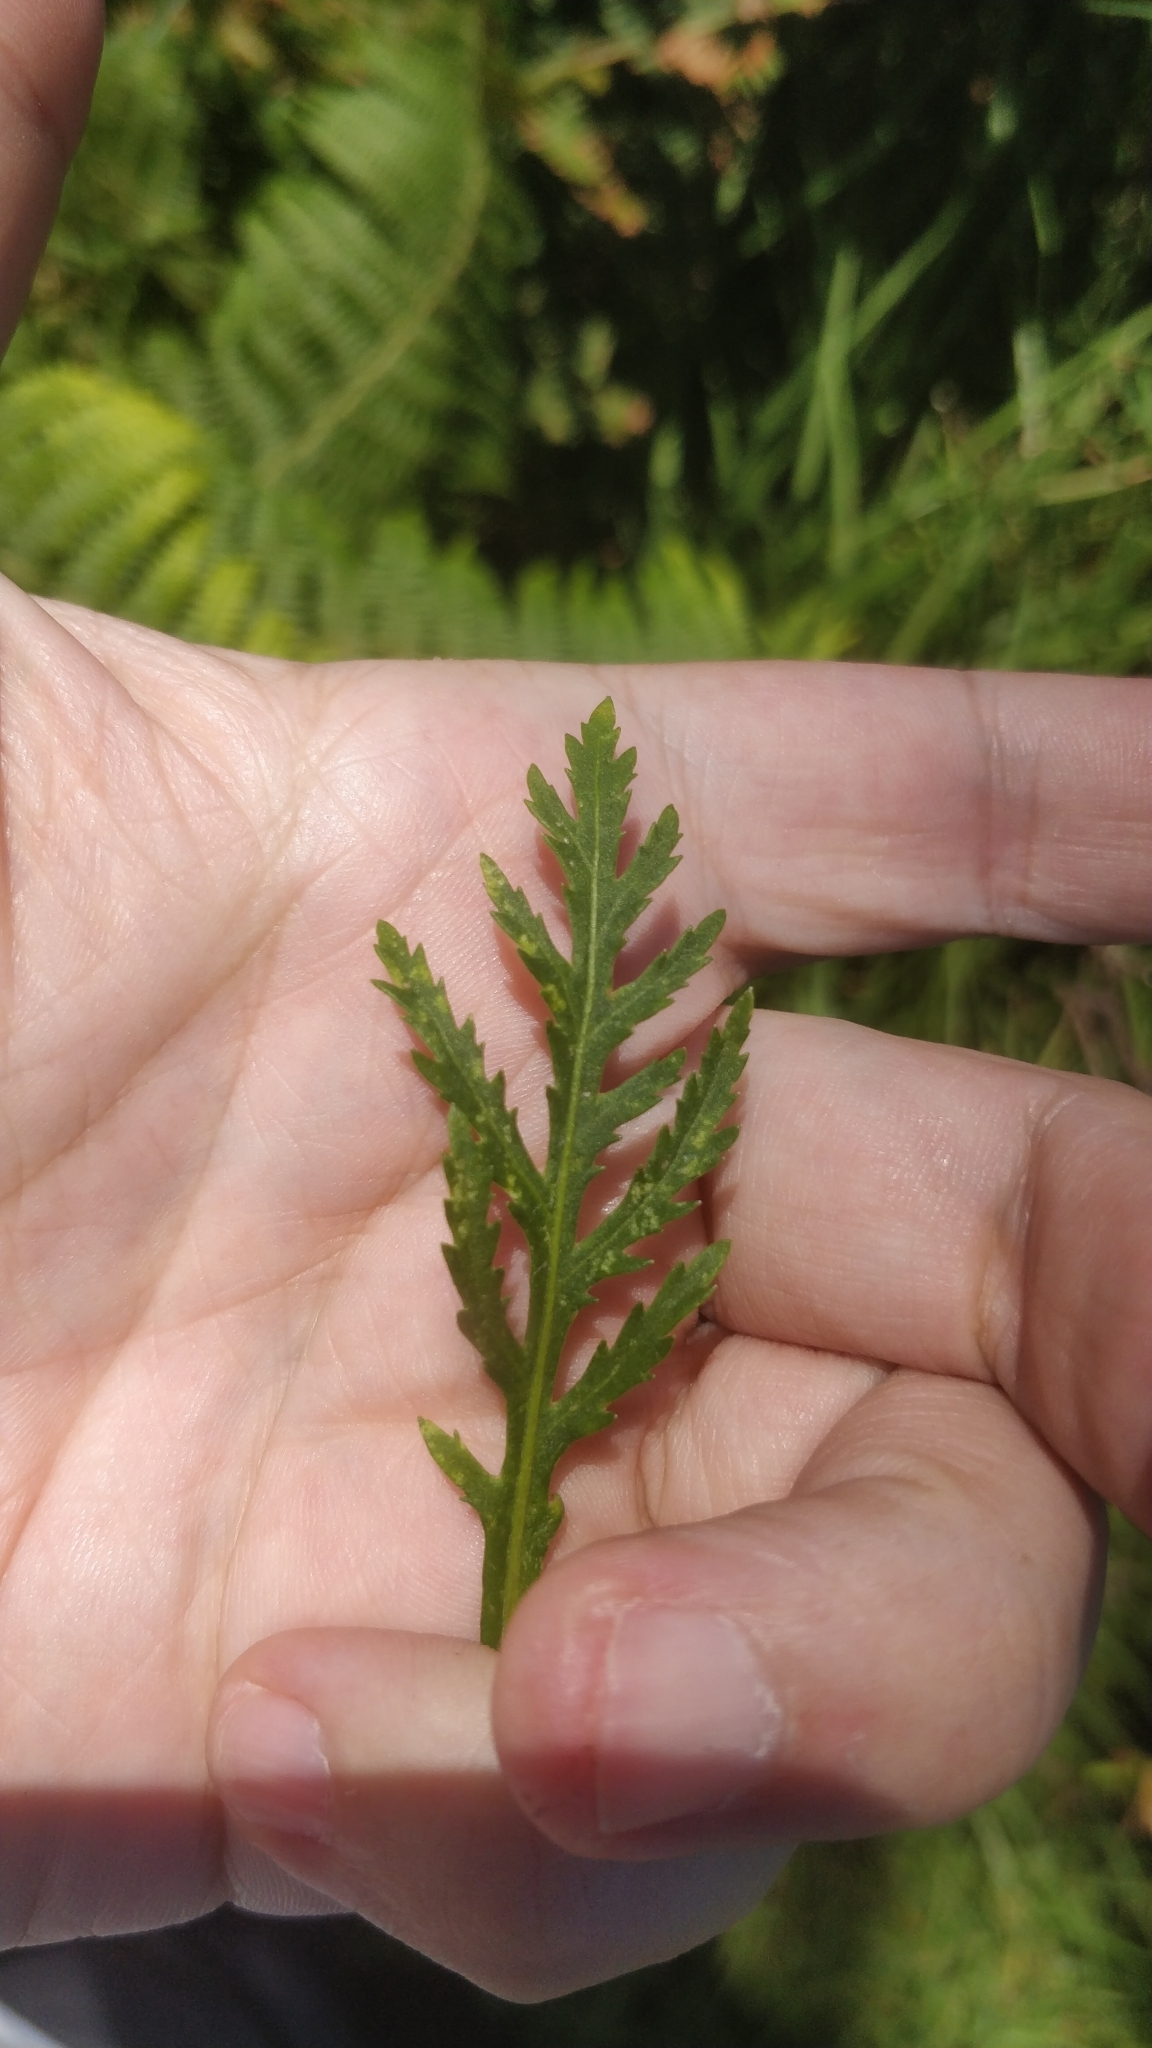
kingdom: Plantae
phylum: Tracheophyta
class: Magnoliopsida
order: Asterales
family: Asteraceae
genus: Argyranthemum
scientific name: Argyranthemum dissectum
